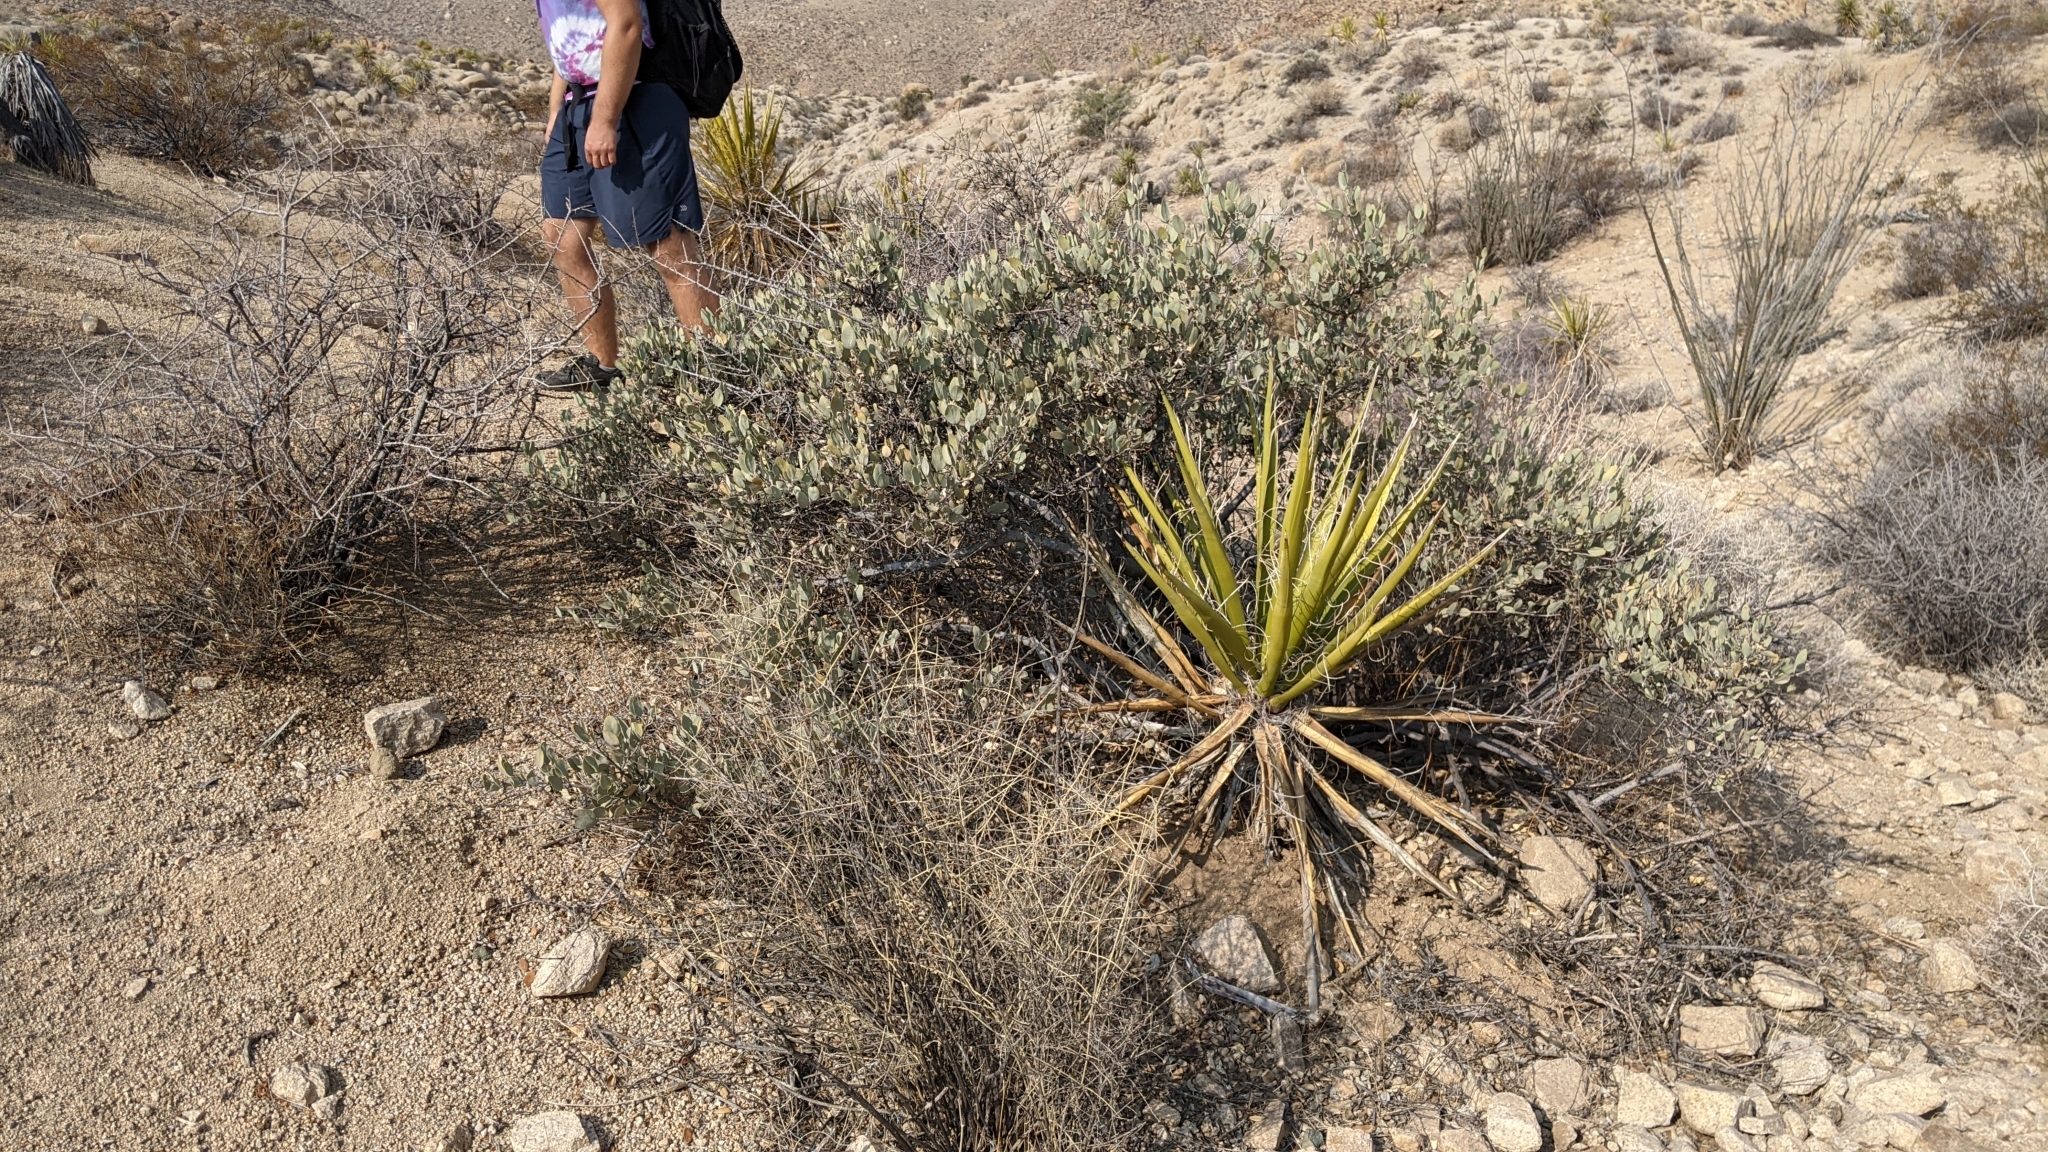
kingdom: Animalia
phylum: Chordata
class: Squamata
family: Phrynosomatidae
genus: Sceloporus
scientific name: Sceloporus magister
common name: Desert spiny lizard
